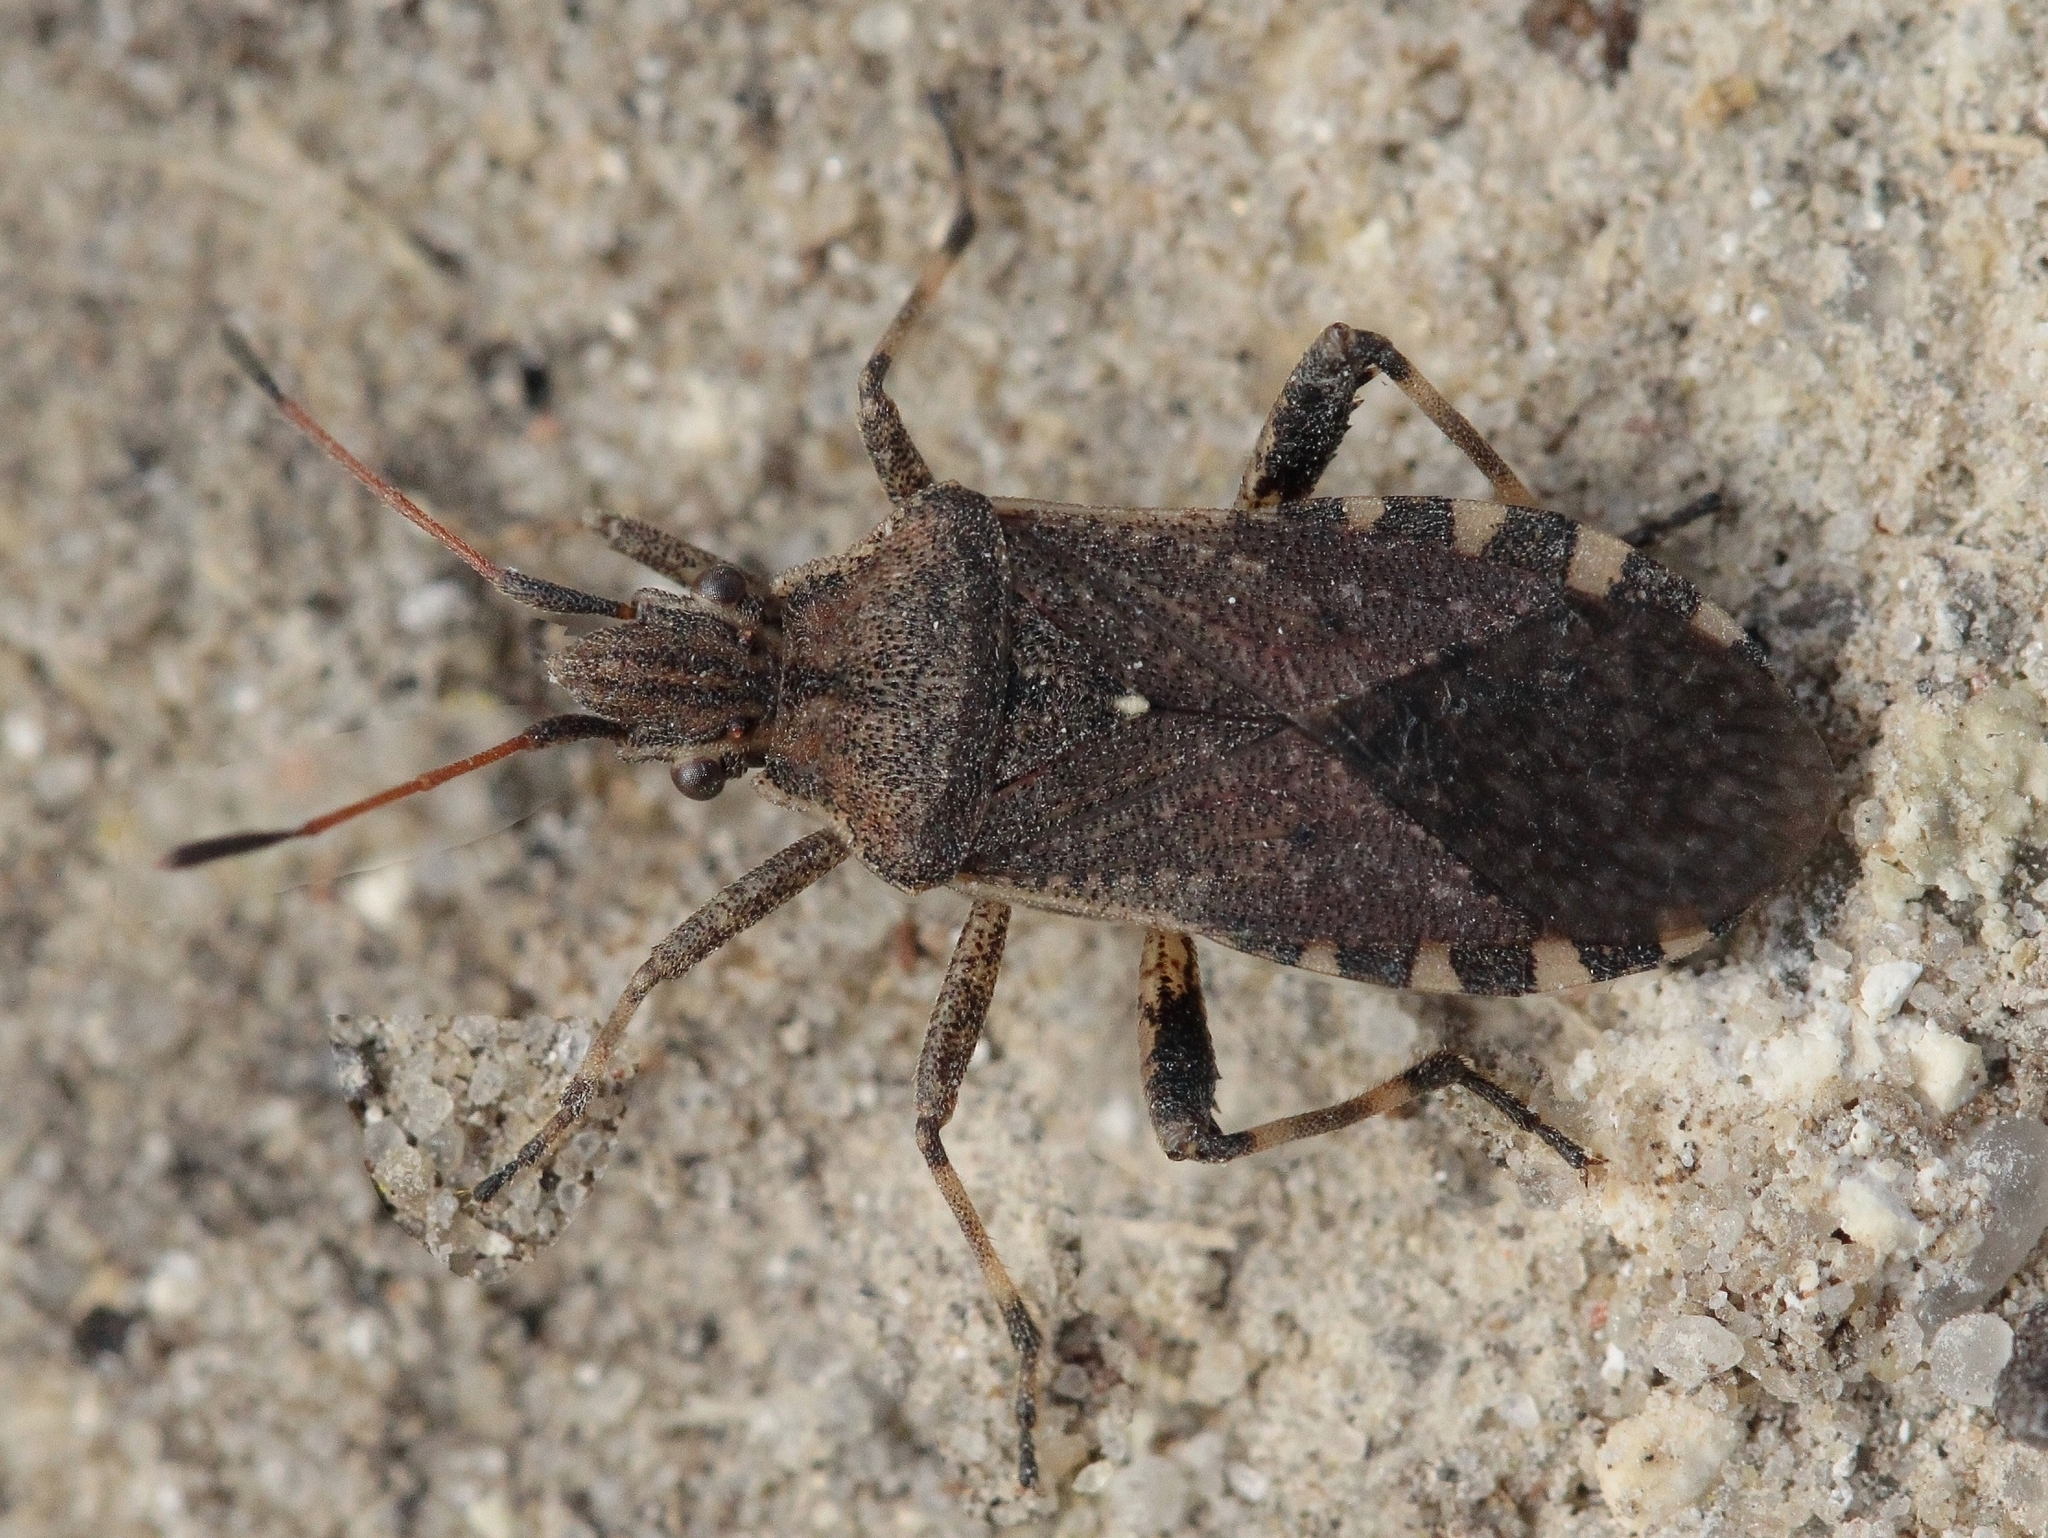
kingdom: Animalia
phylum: Arthropoda
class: Insecta
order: Hemiptera
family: Coreidae
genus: Ceraleptus
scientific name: Ceraleptus gracilicornis
